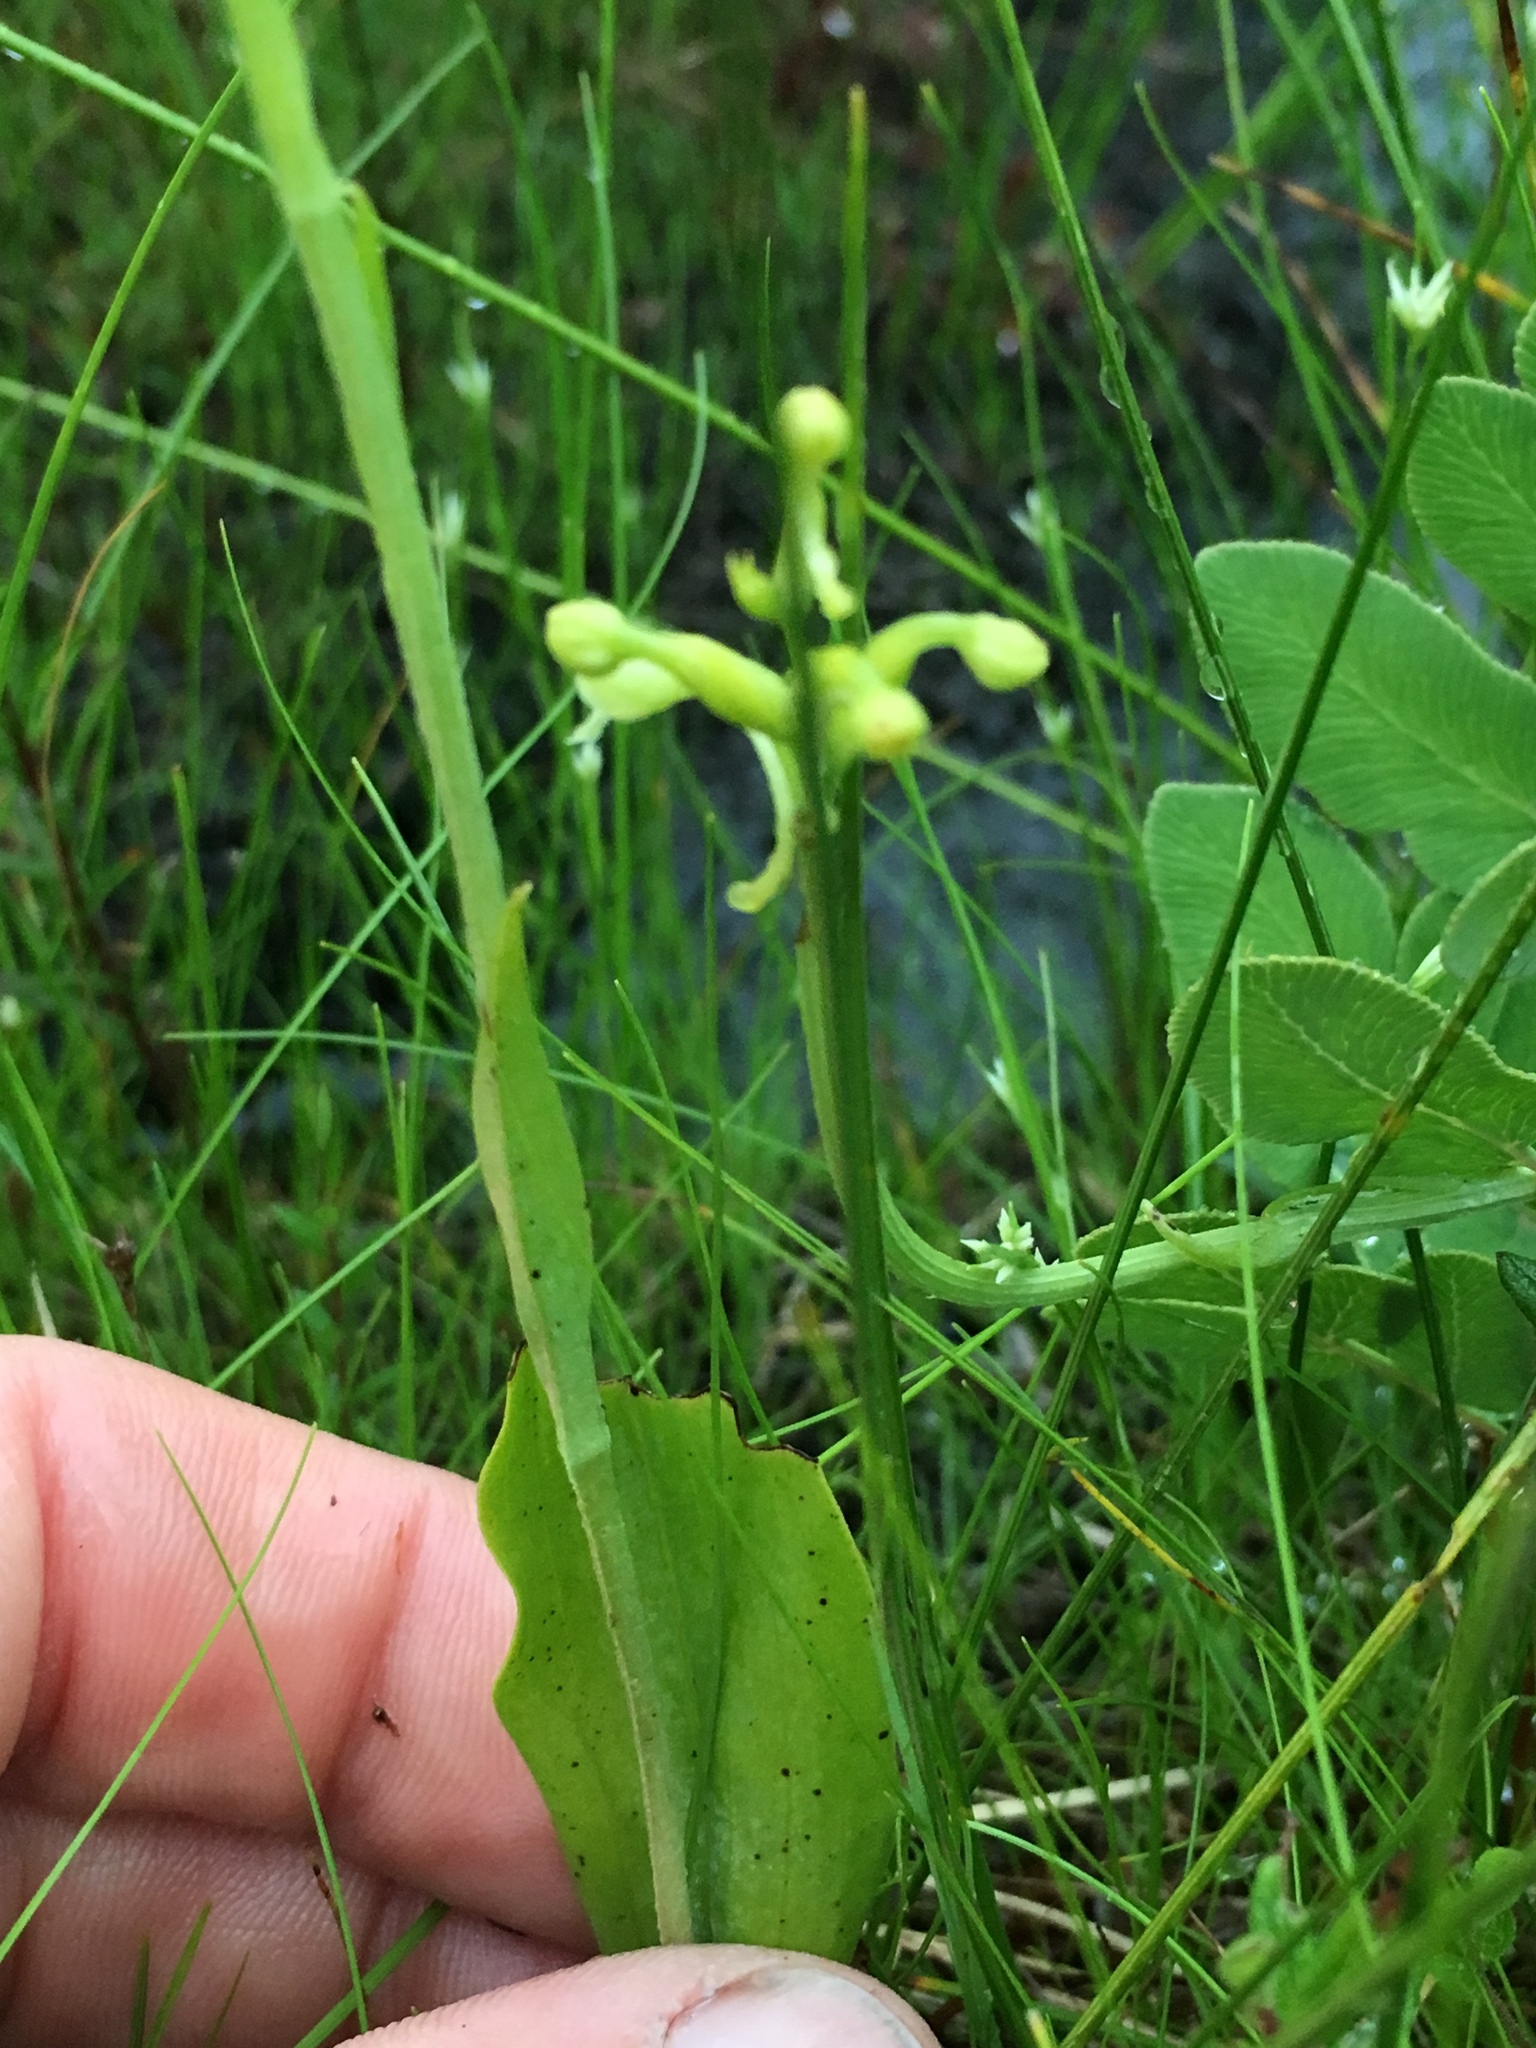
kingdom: Plantae
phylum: Tracheophyta
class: Liliopsida
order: Asparagales
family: Orchidaceae
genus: Platanthera
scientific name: Platanthera clavellata
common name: Club-spur orchid
